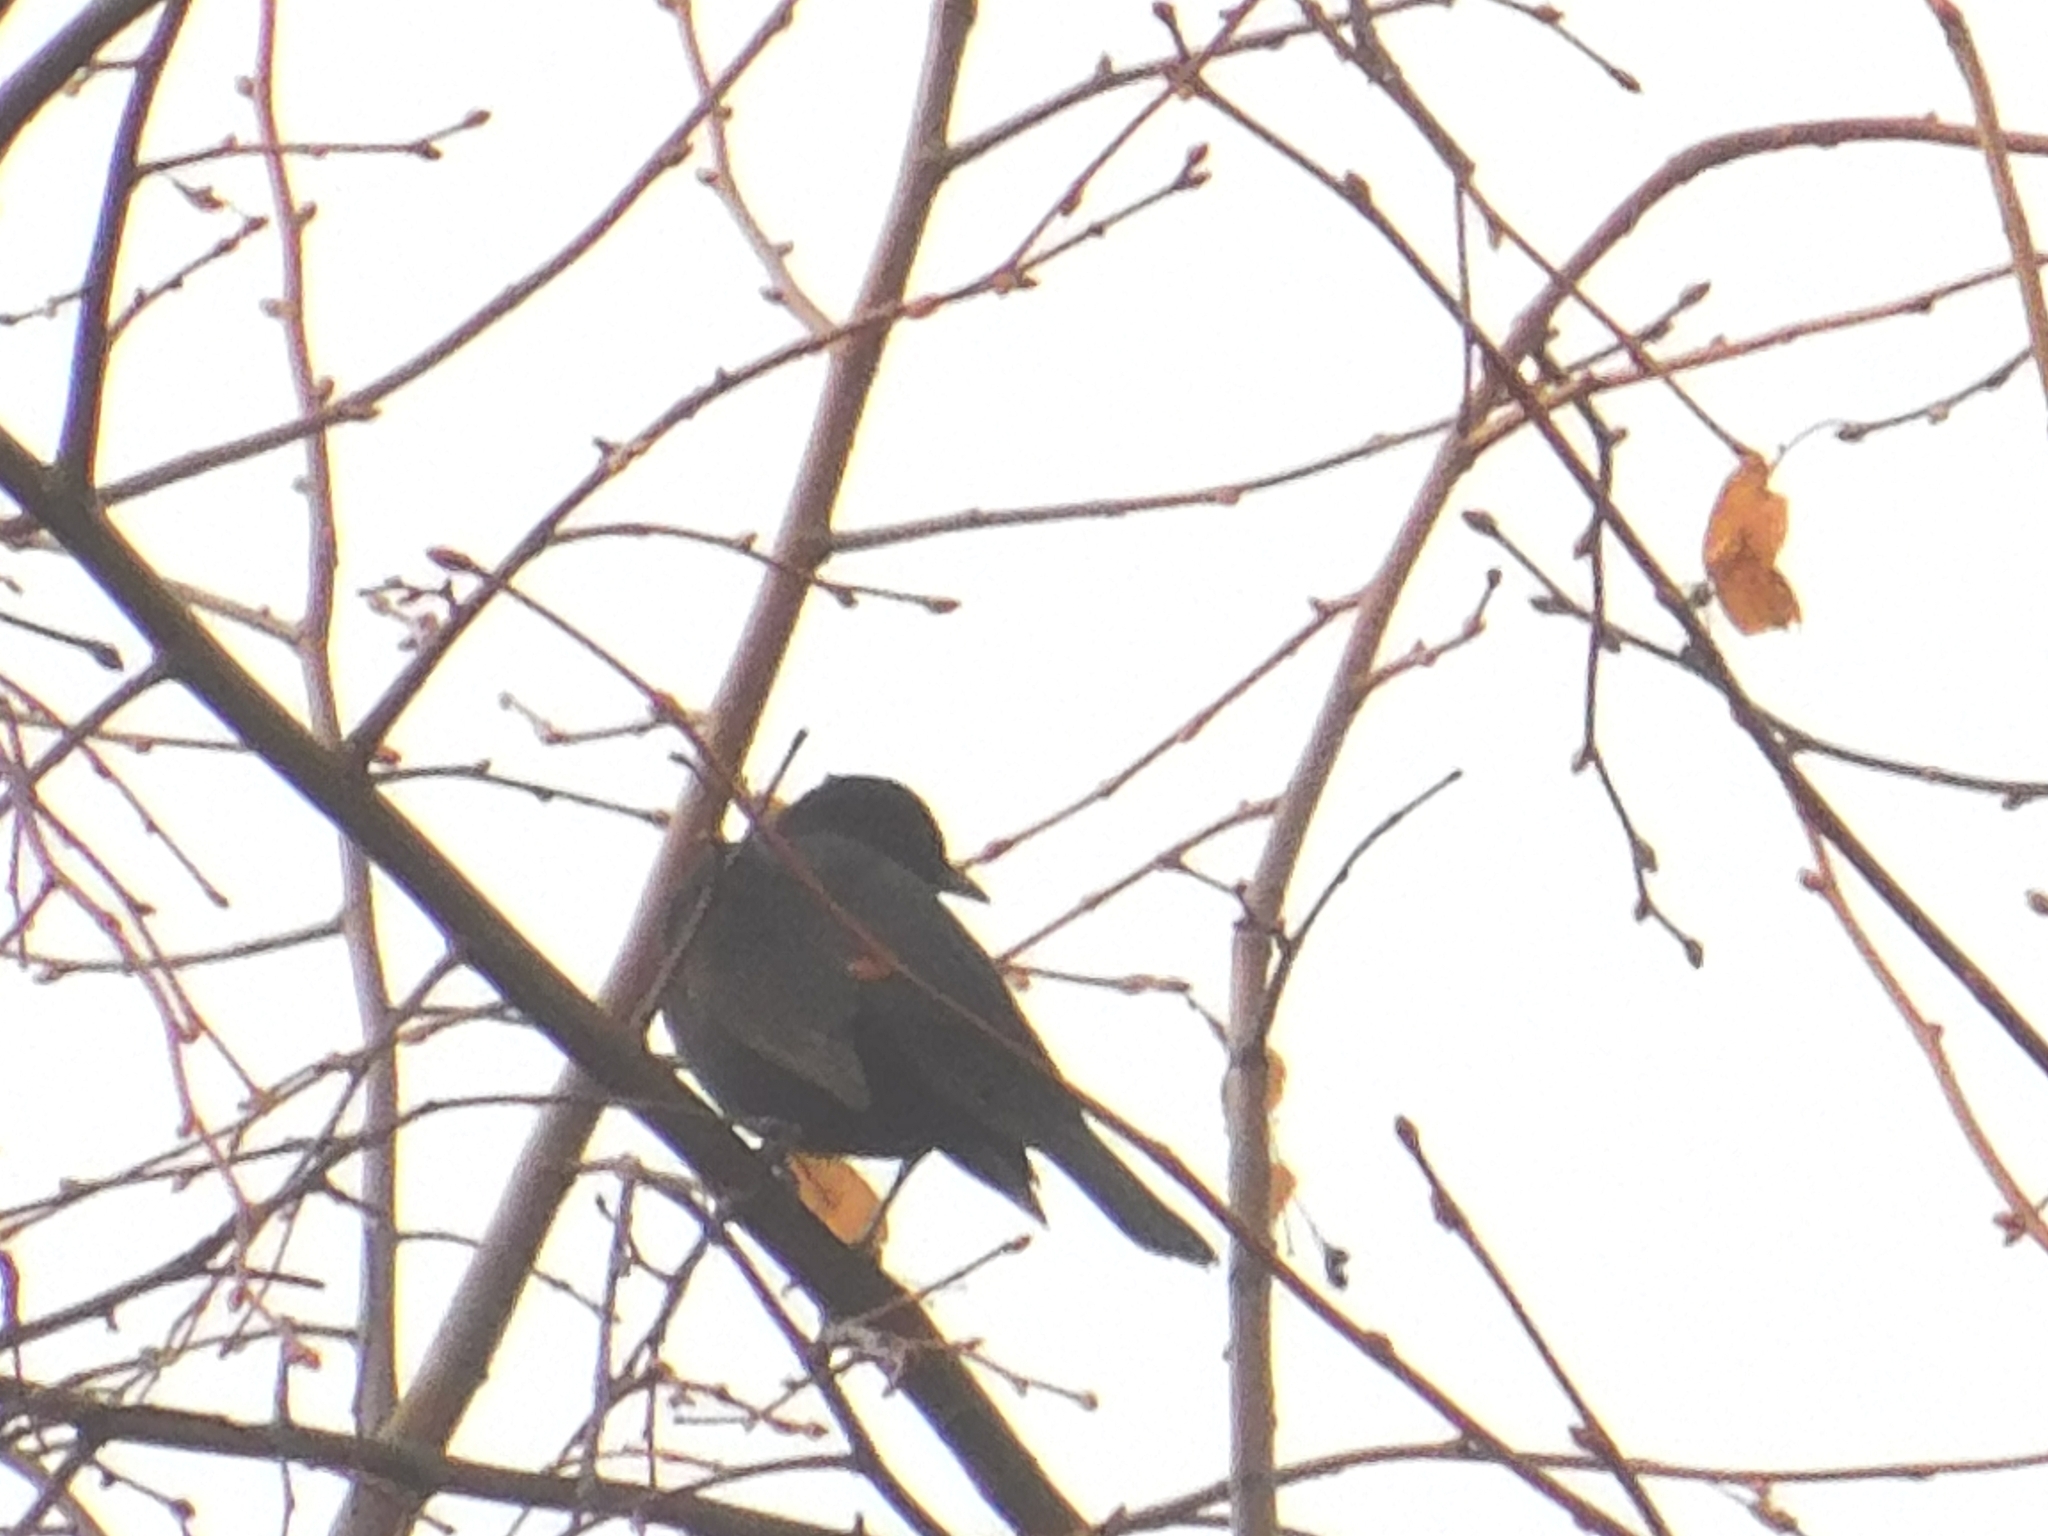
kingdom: Animalia
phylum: Chordata
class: Aves
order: Passeriformes
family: Turdidae
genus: Turdus
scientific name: Turdus merula
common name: Common blackbird
